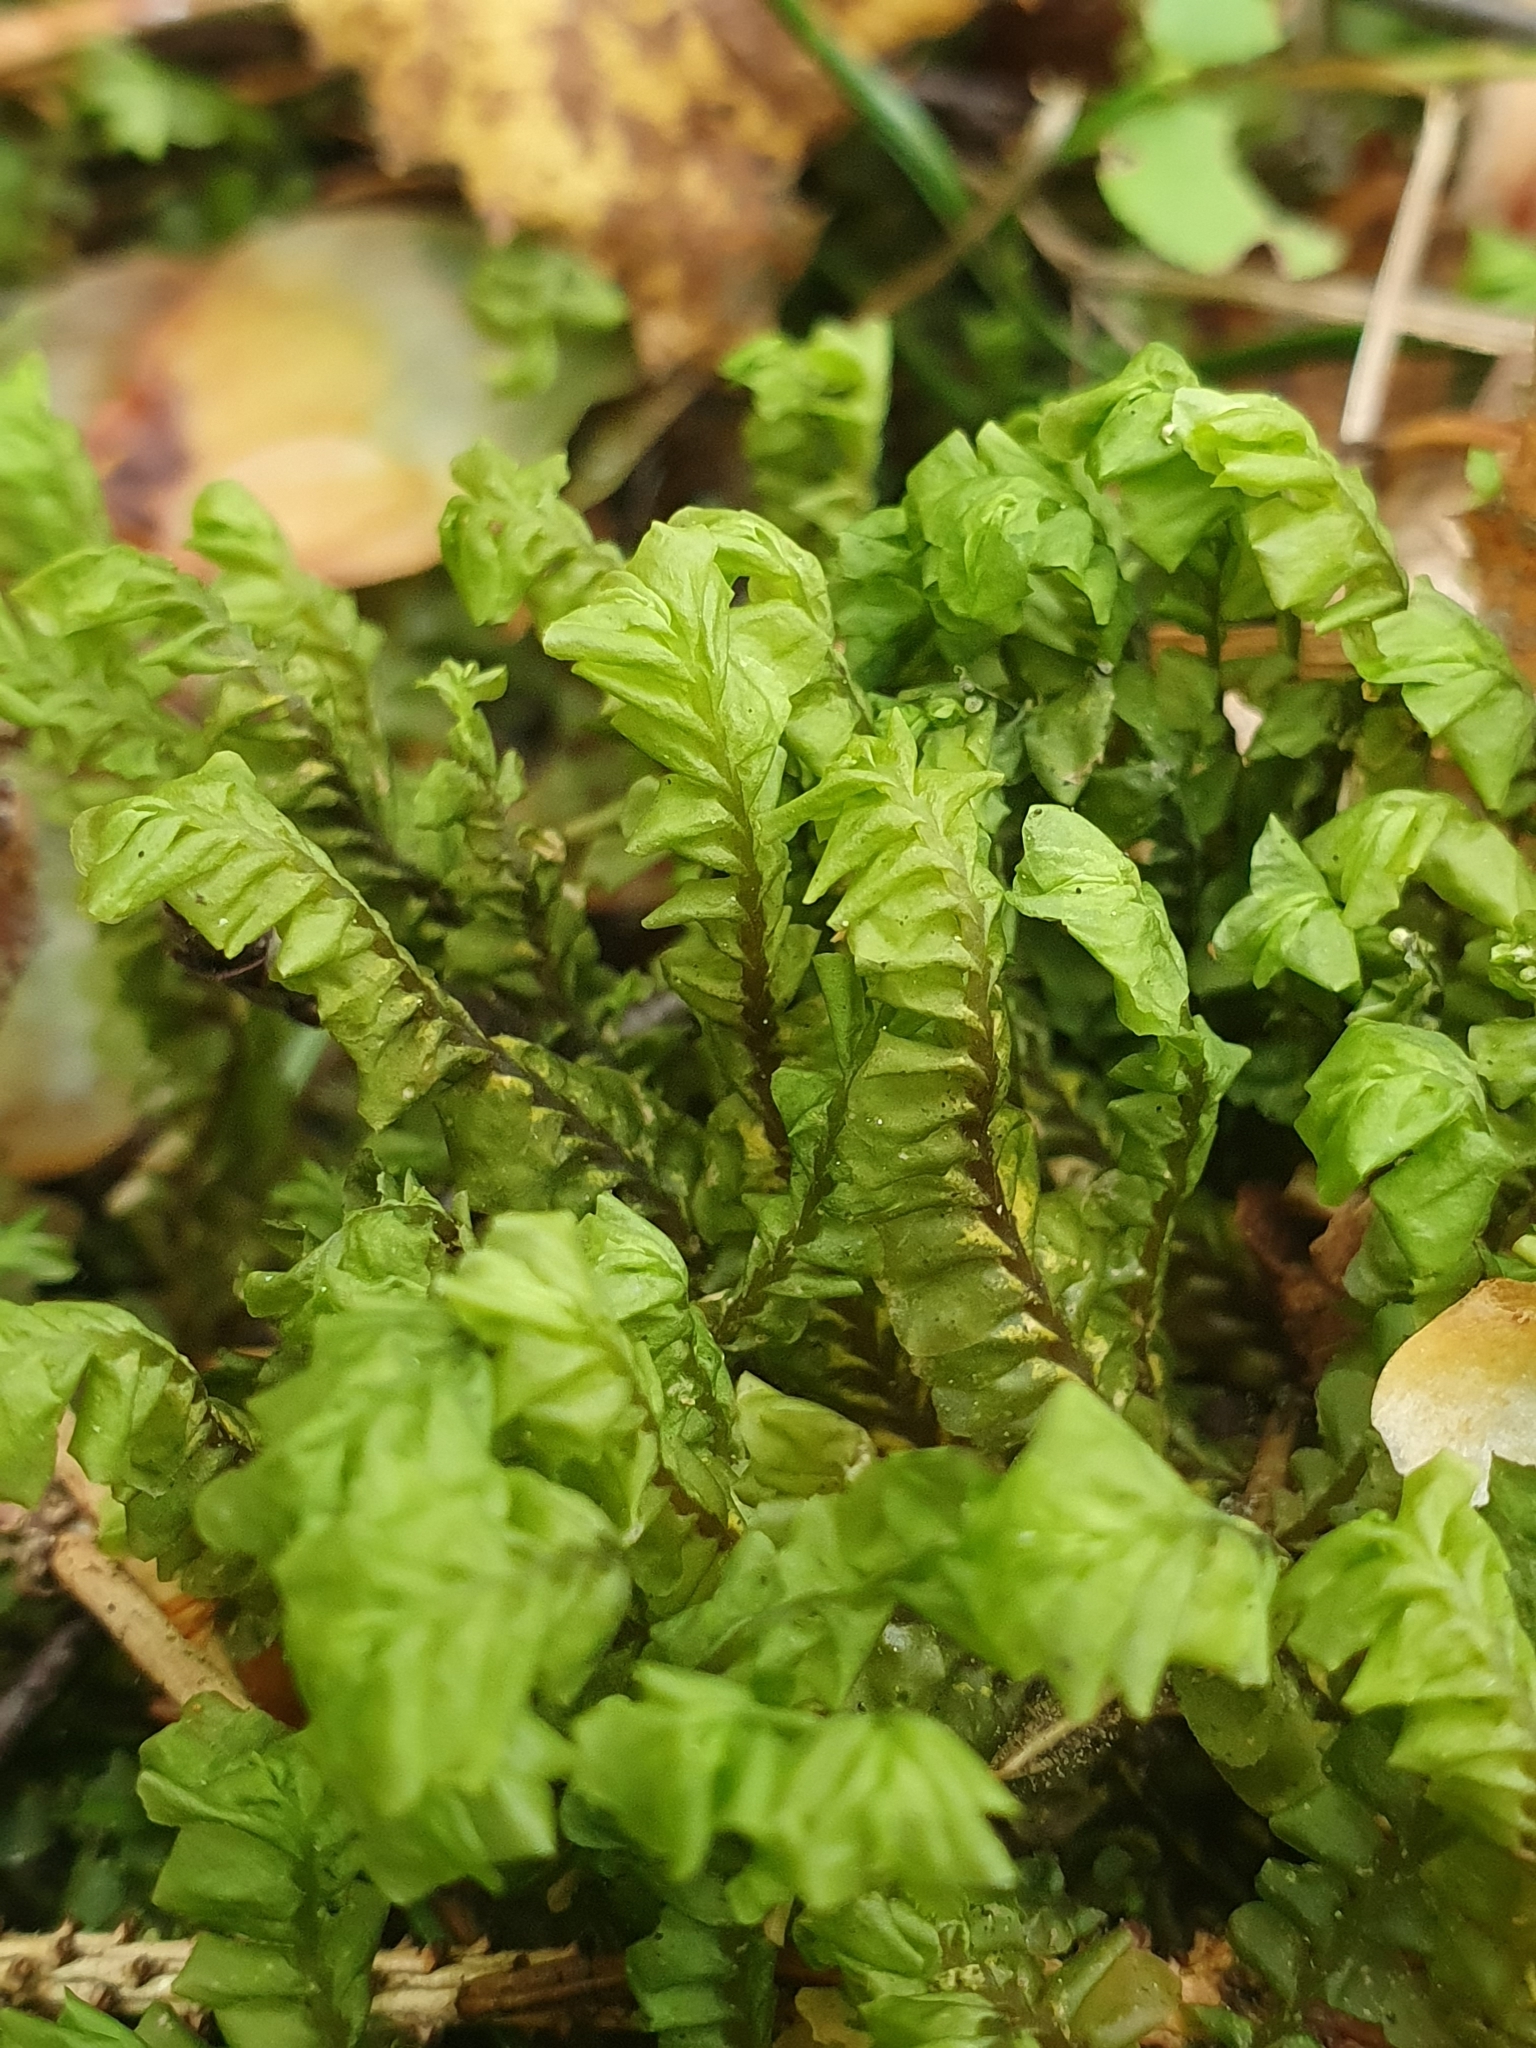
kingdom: Plantae
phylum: Marchantiophyta
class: Jungermanniopsida
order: Jungermanniales
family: Plagiochilaceae
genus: Plagiochila
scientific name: Plagiochila asplenioides
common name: Greater featherwort
